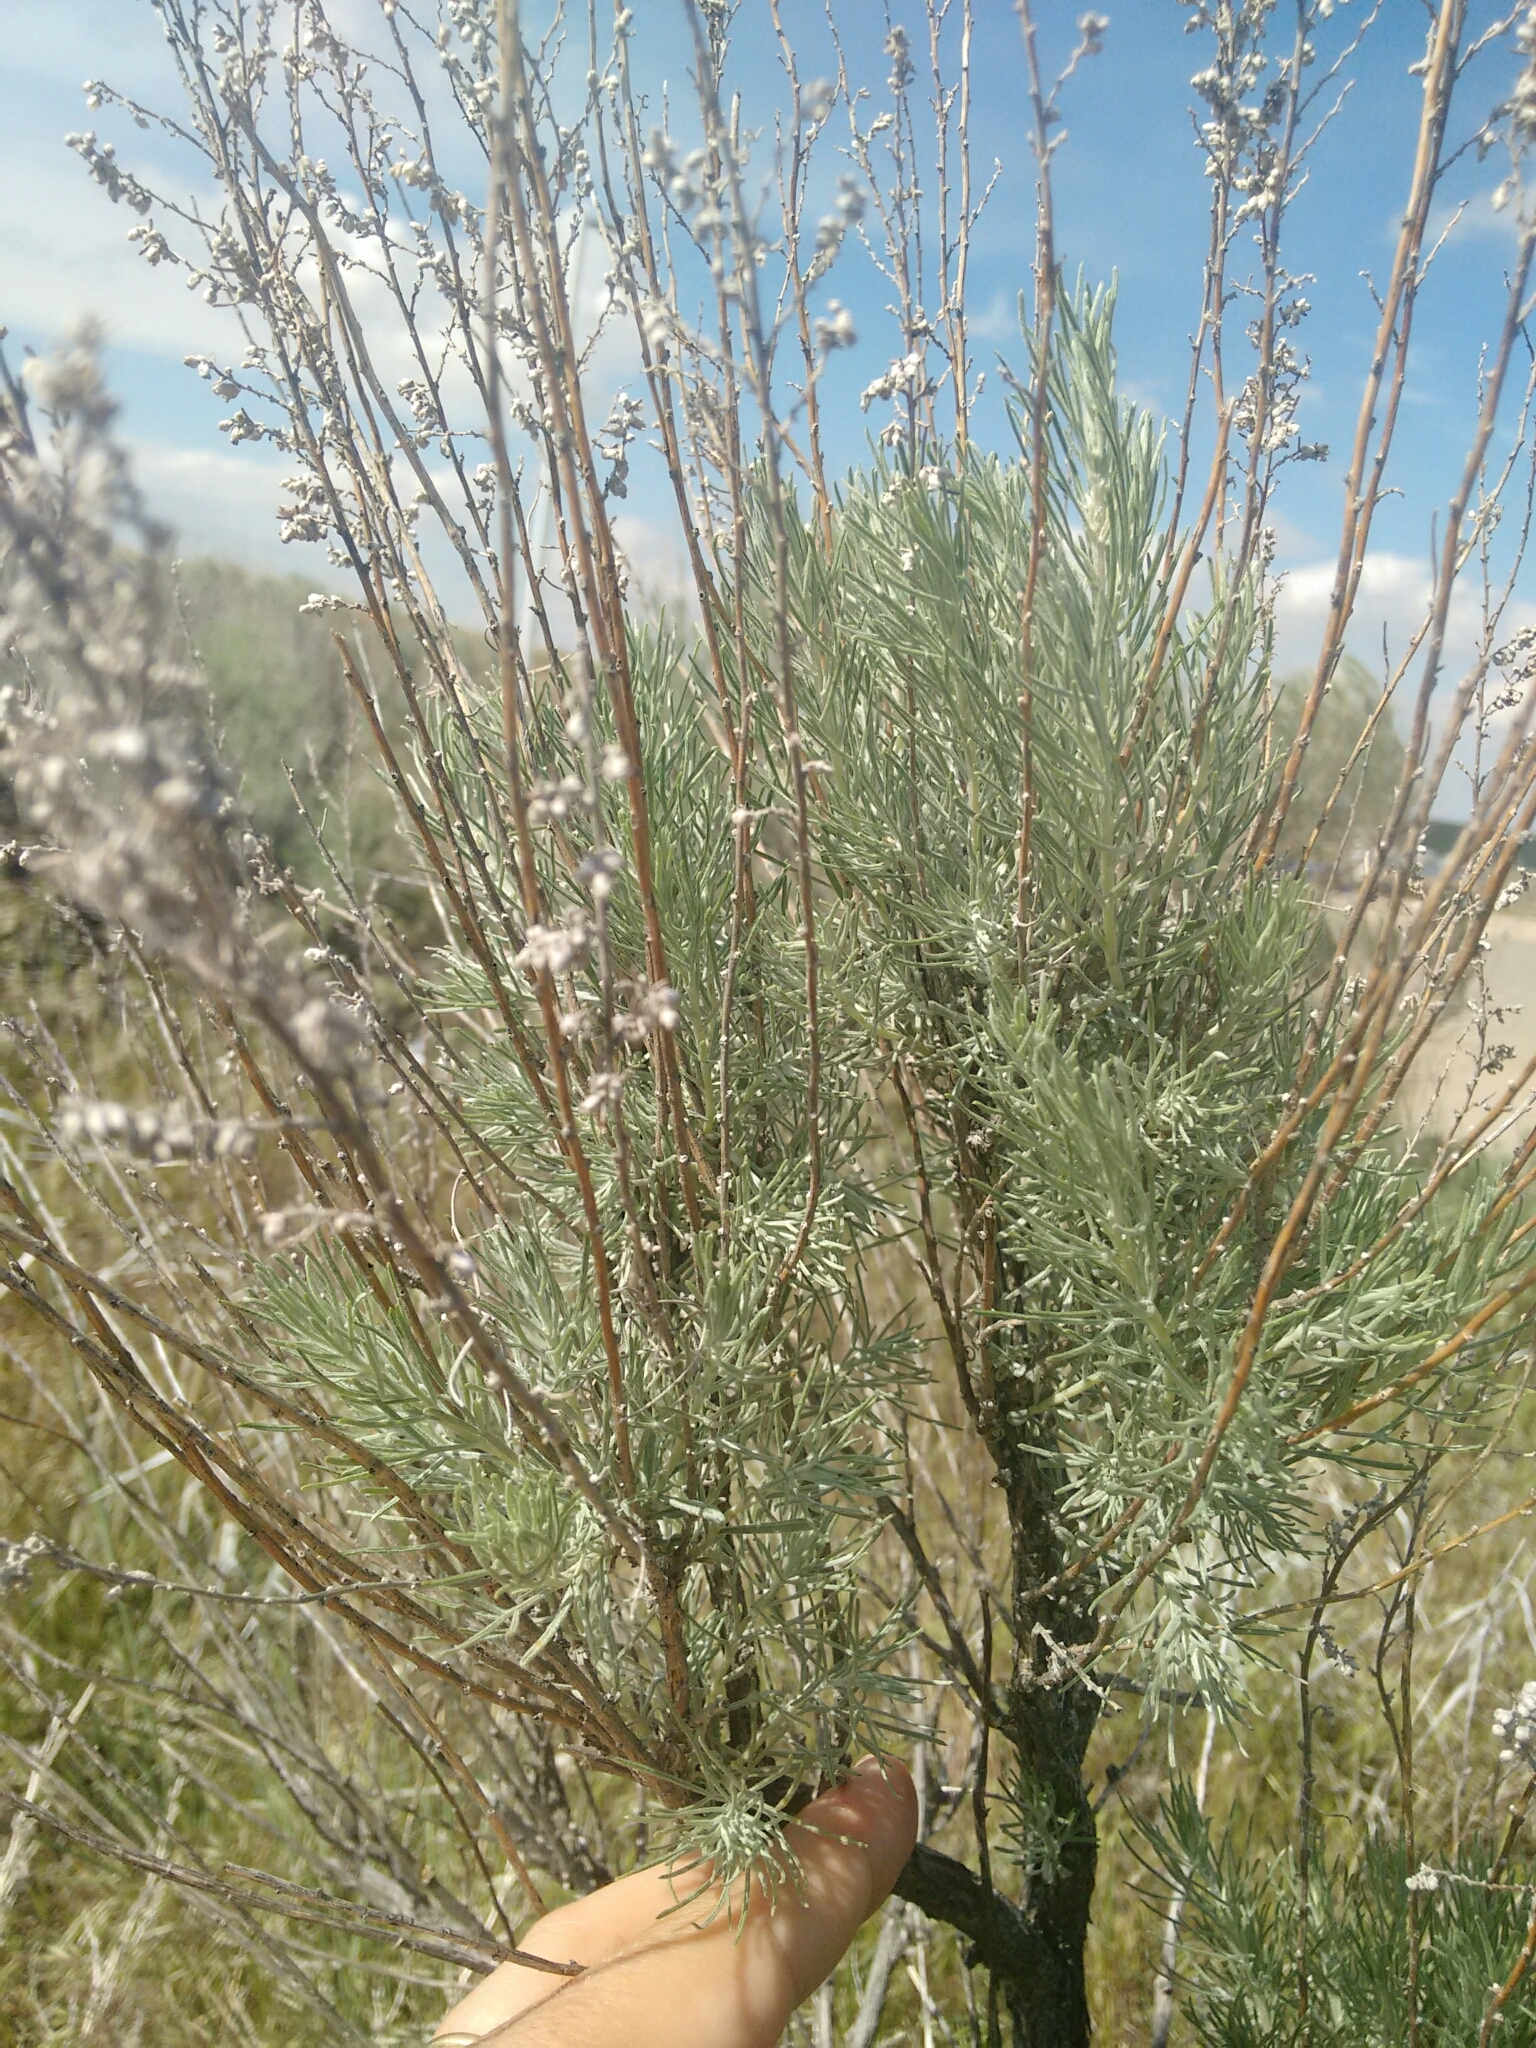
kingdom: Plantae
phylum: Tracheophyta
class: Magnoliopsida
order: Asterales
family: Asteraceae
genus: Artemisia
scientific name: Artemisia filifolia
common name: Sand-sage
